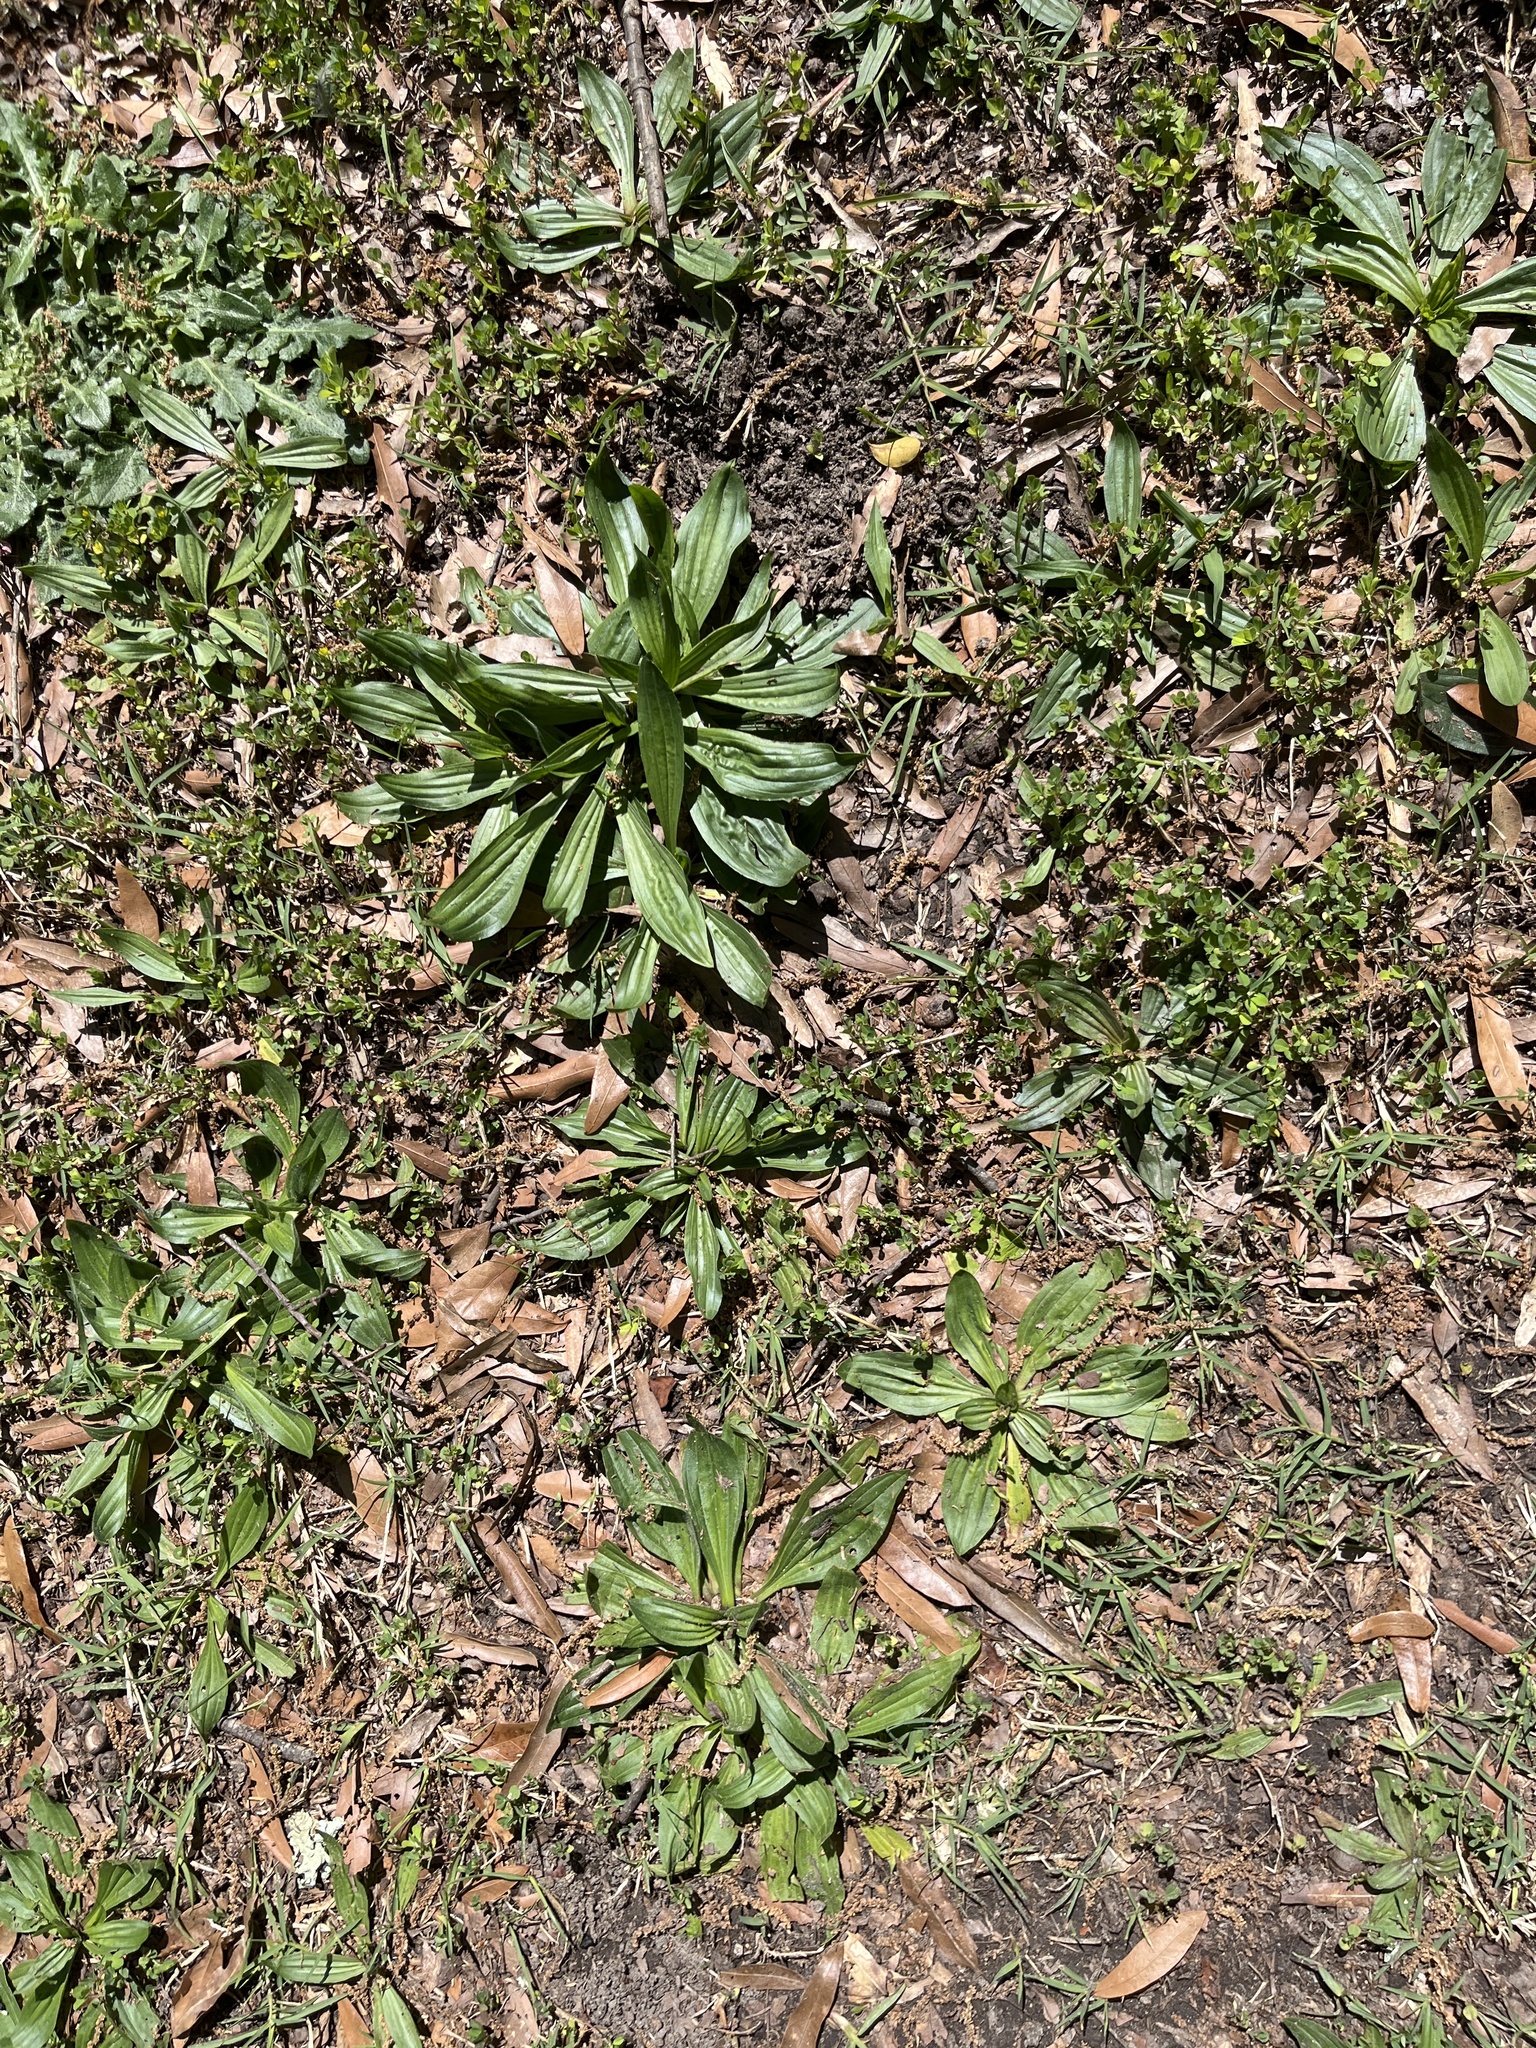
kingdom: Plantae
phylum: Tracheophyta
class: Magnoliopsida
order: Lamiales
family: Plantaginaceae
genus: Plantago
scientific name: Plantago lanceolata
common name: Ribwort plantain
